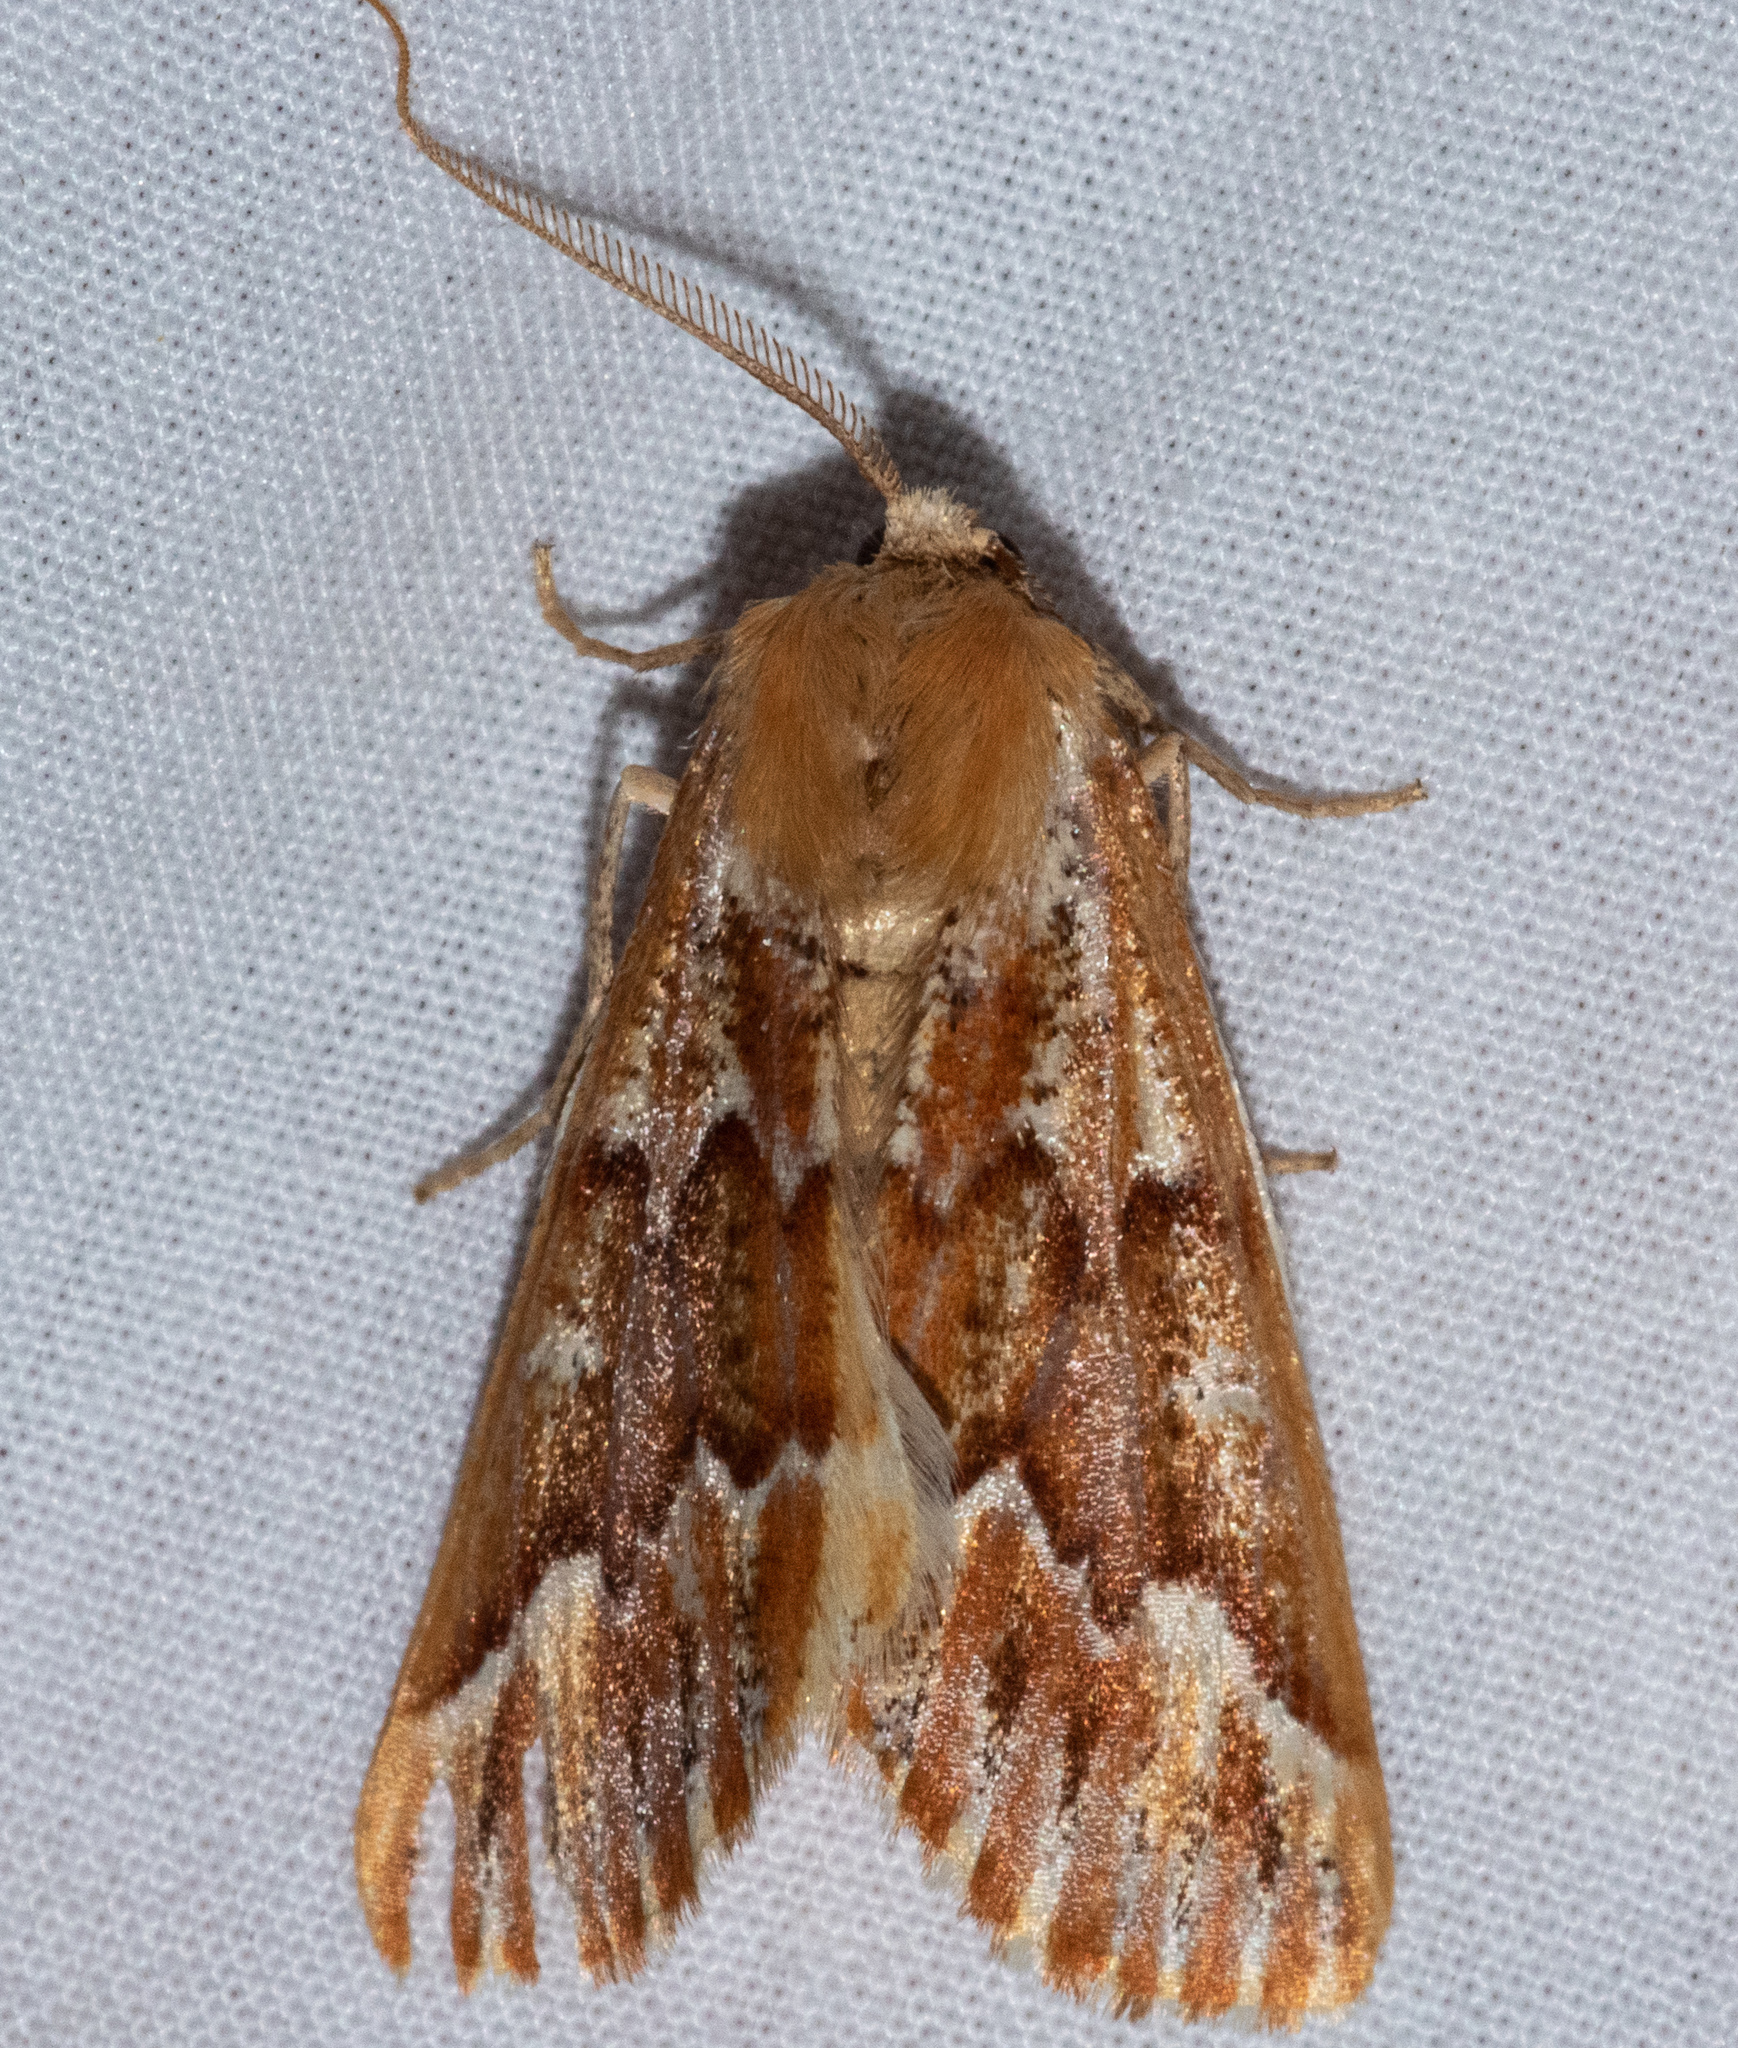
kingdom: Animalia
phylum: Arthropoda
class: Insecta
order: Lepidoptera
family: Geometridae
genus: Caripeta
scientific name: Caripeta aequaliaria
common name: Red girdle moth
